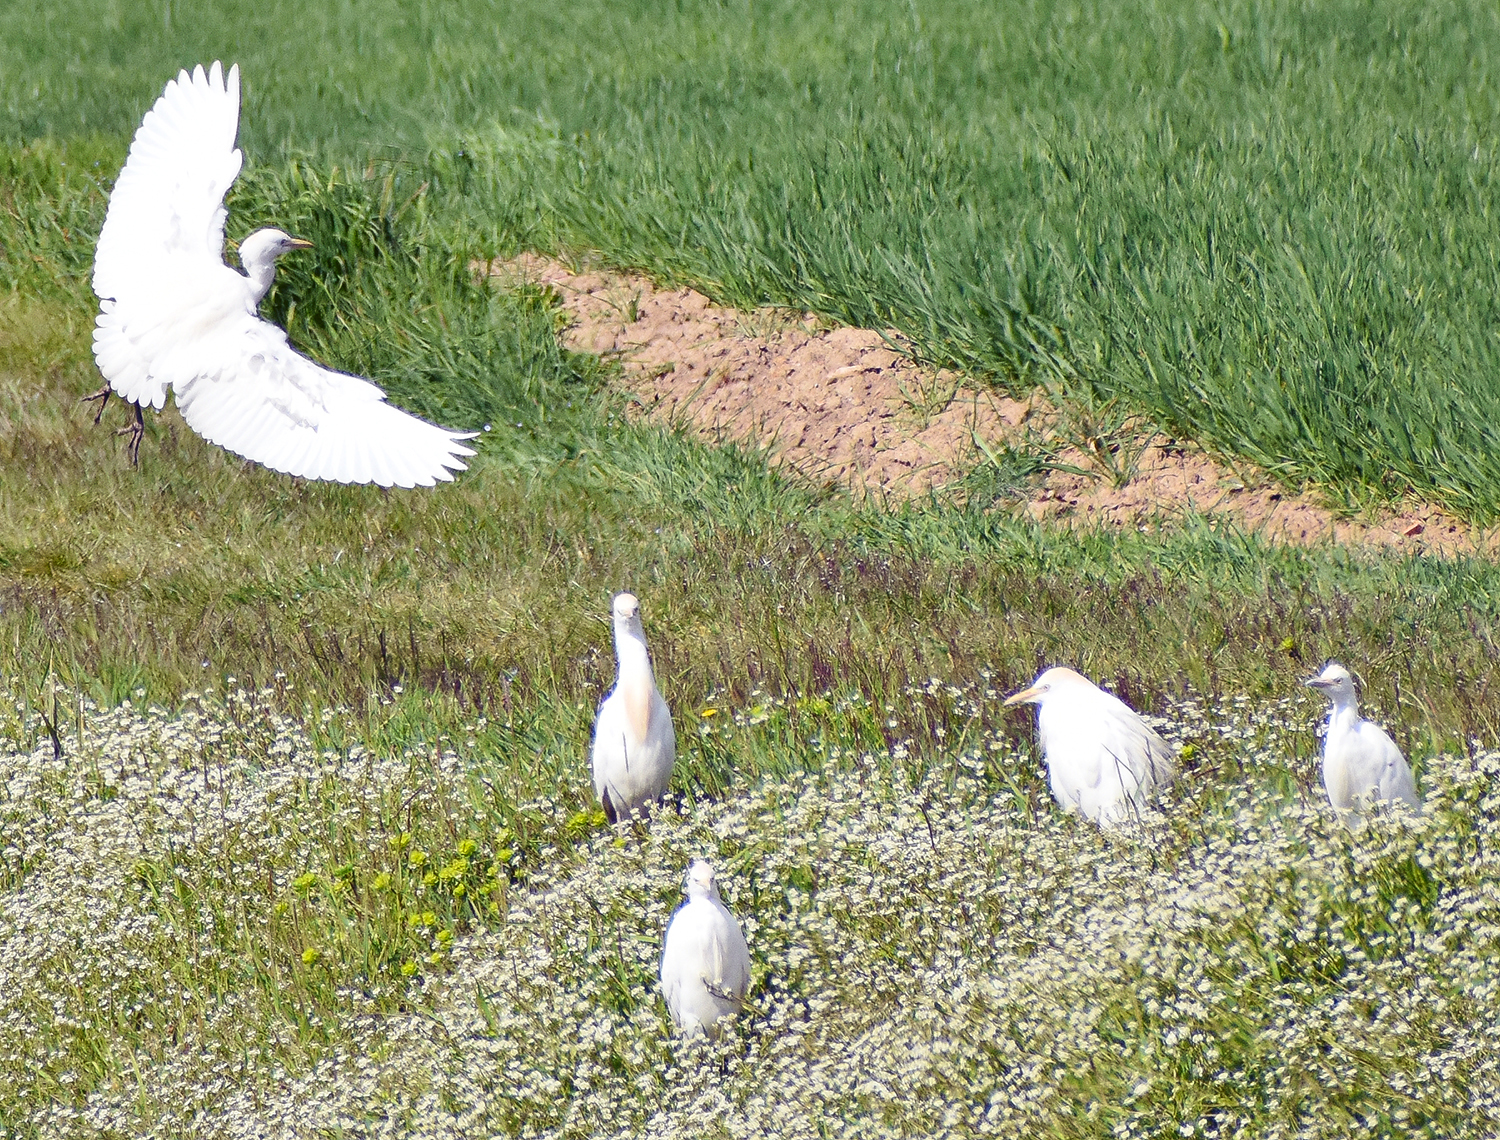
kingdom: Animalia
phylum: Chordata
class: Aves
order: Pelecaniformes
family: Ardeidae
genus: Bubulcus
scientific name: Bubulcus ibis
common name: Cattle egret
